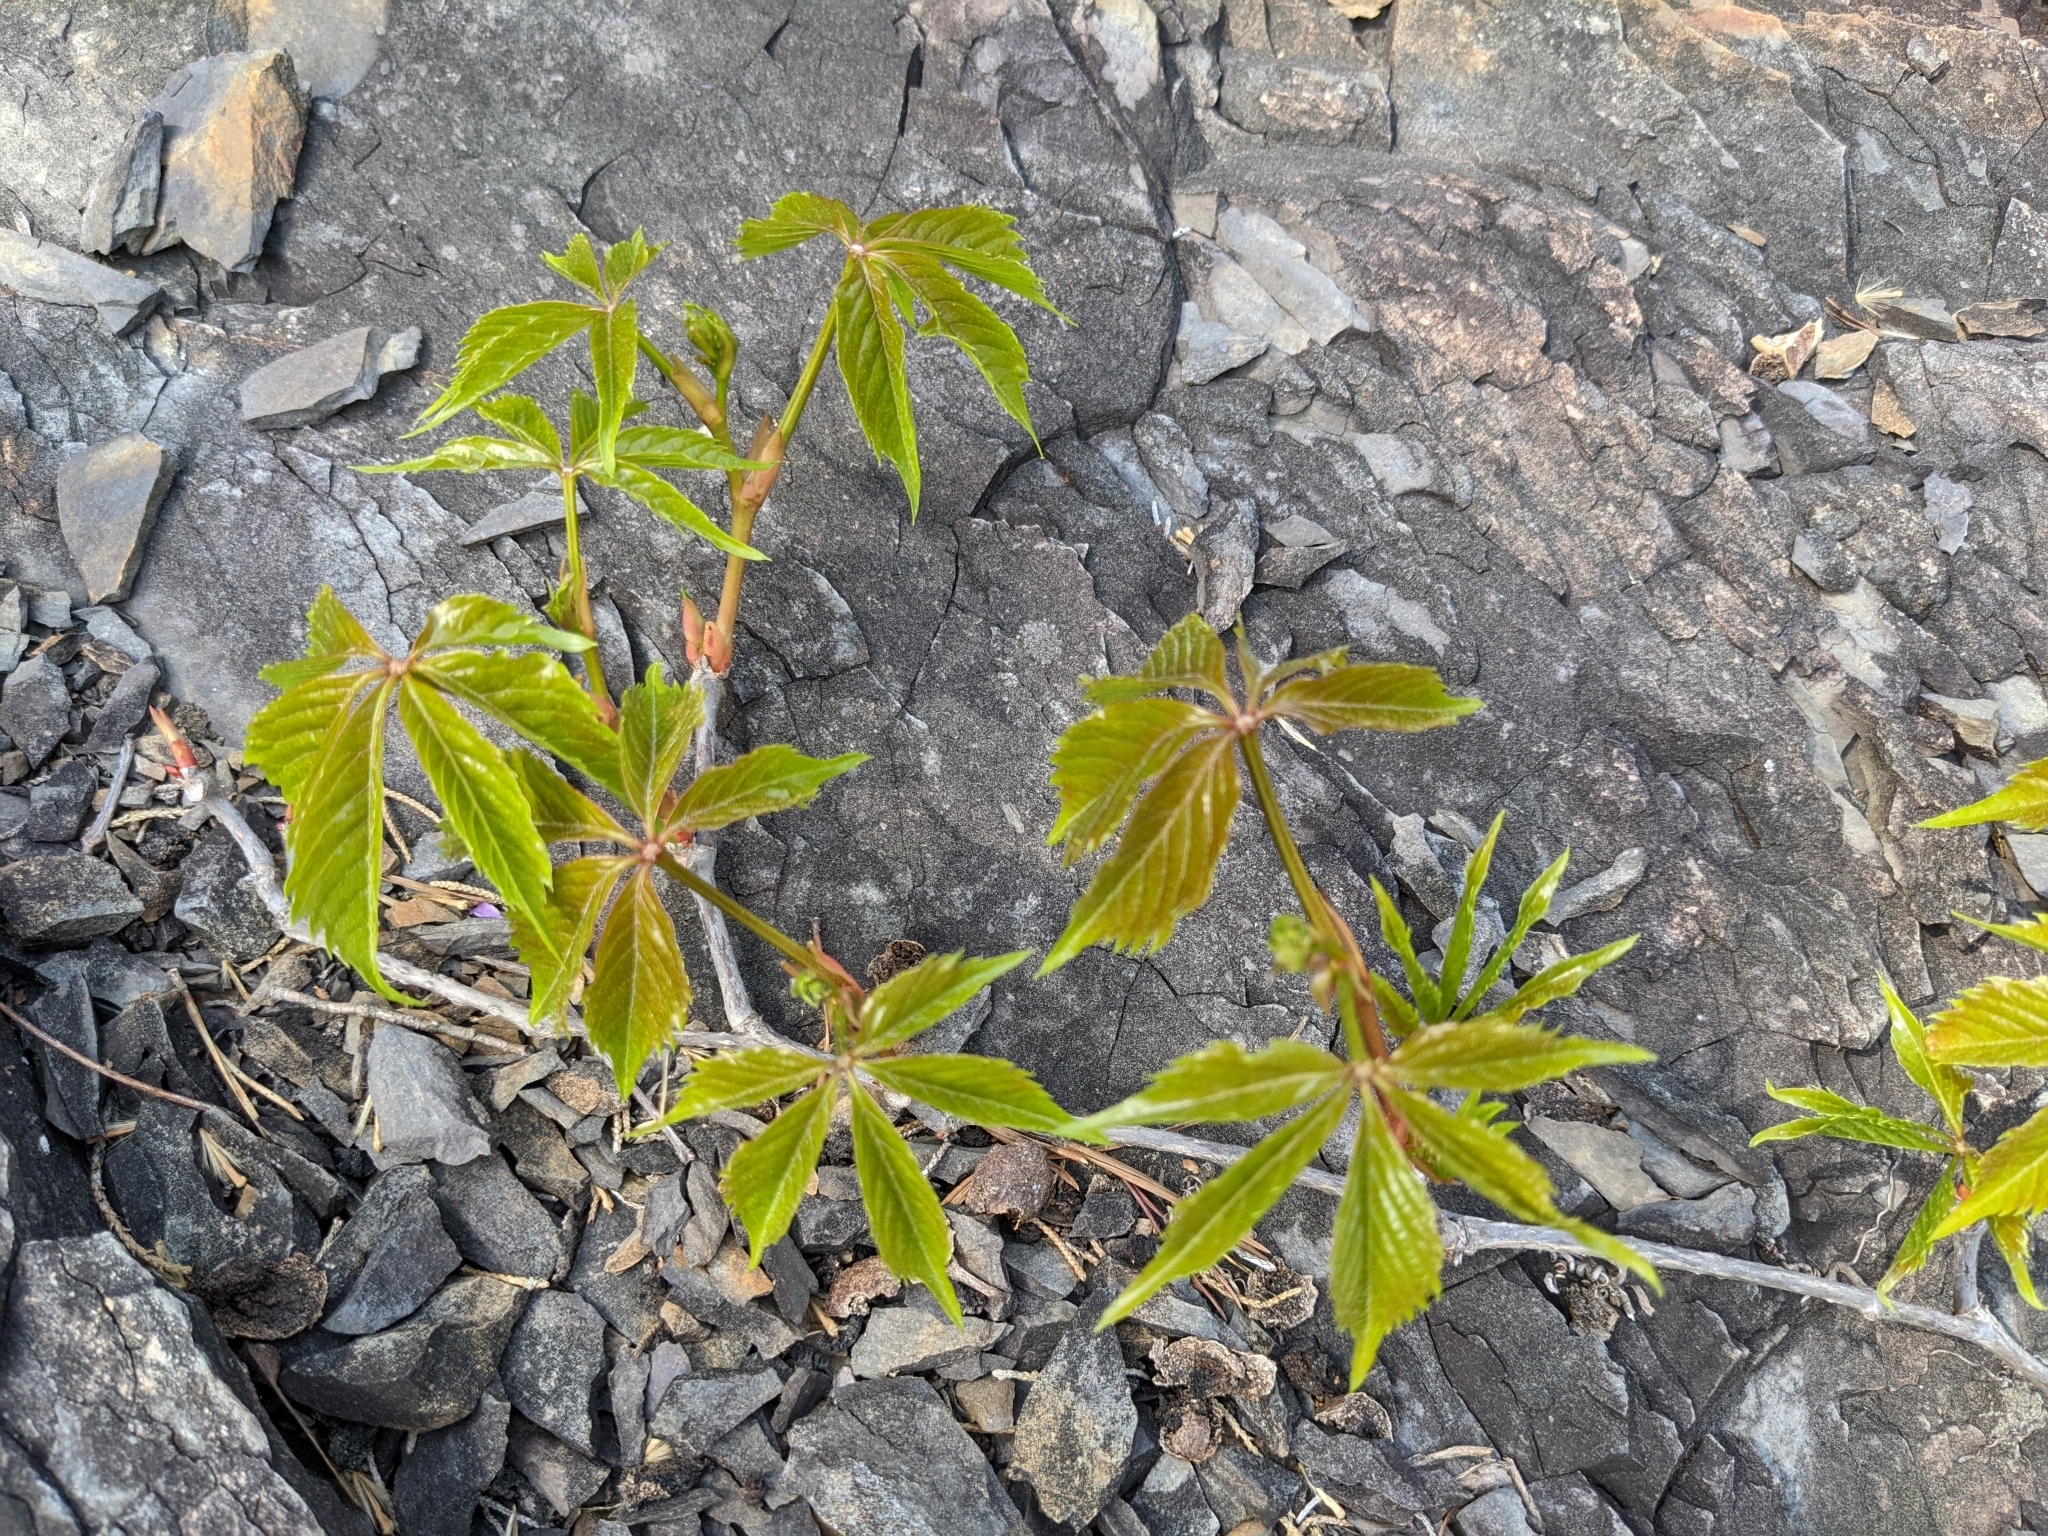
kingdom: Plantae
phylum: Tracheophyta
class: Magnoliopsida
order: Vitales
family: Vitaceae
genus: Parthenocissus
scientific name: Parthenocissus quinquefolia
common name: Virginia-creeper
